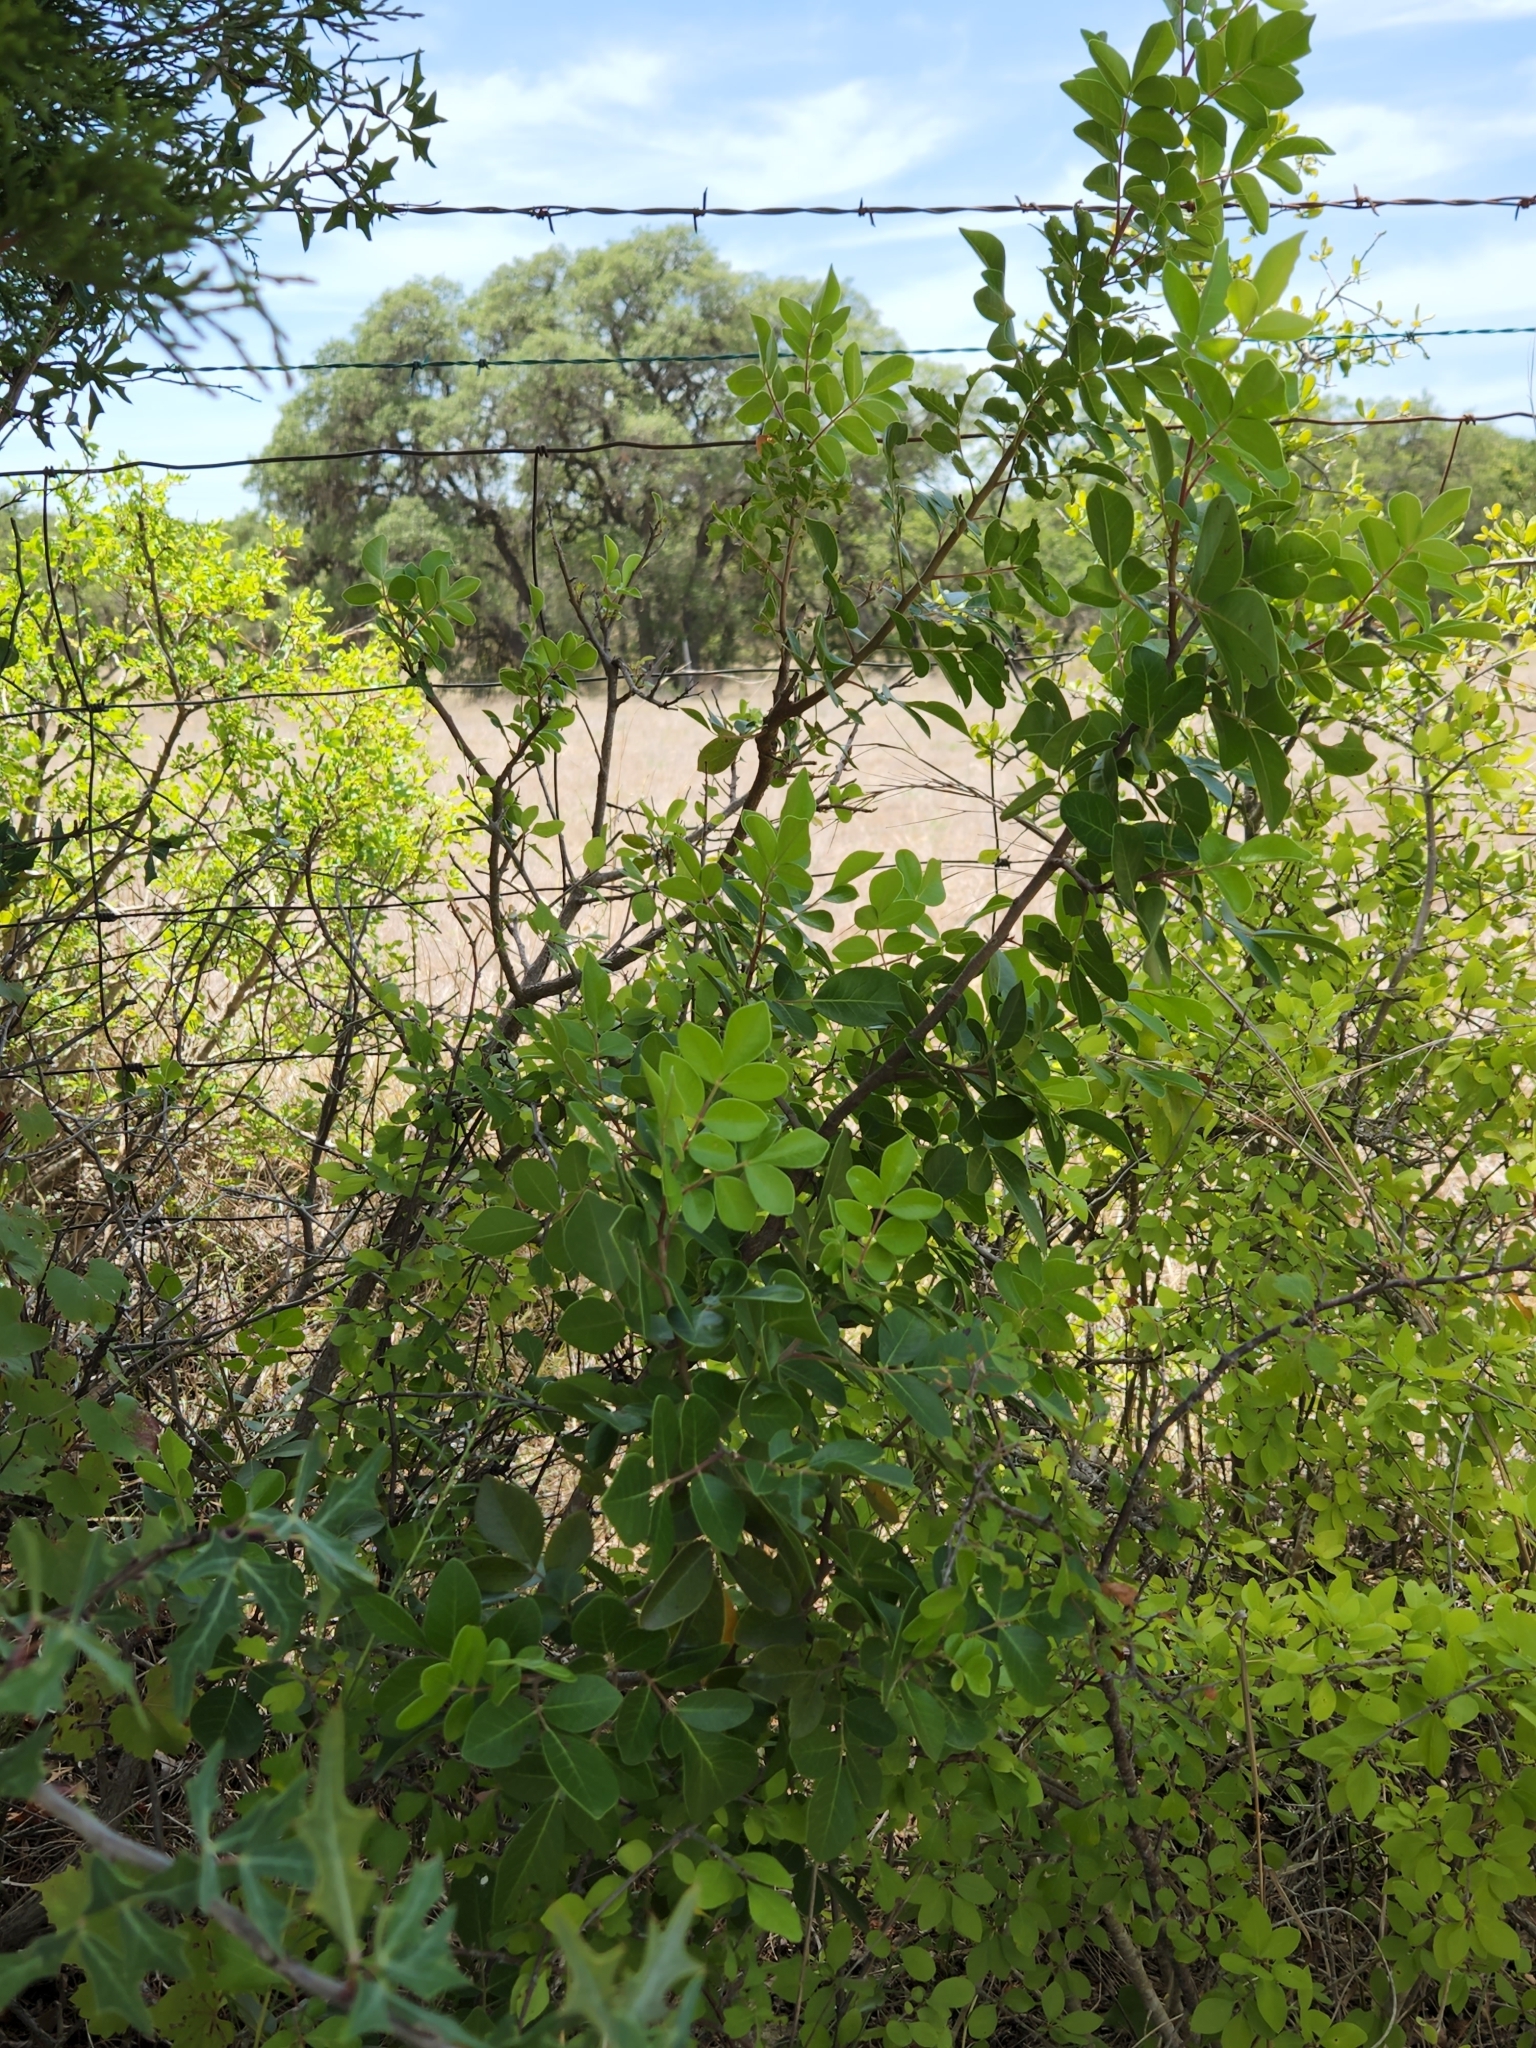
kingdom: Plantae
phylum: Tracheophyta
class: Magnoliopsida
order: Sapindales
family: Anacardiaceae
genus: Rhus
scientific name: Rhus virens
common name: Evergreen sumac
